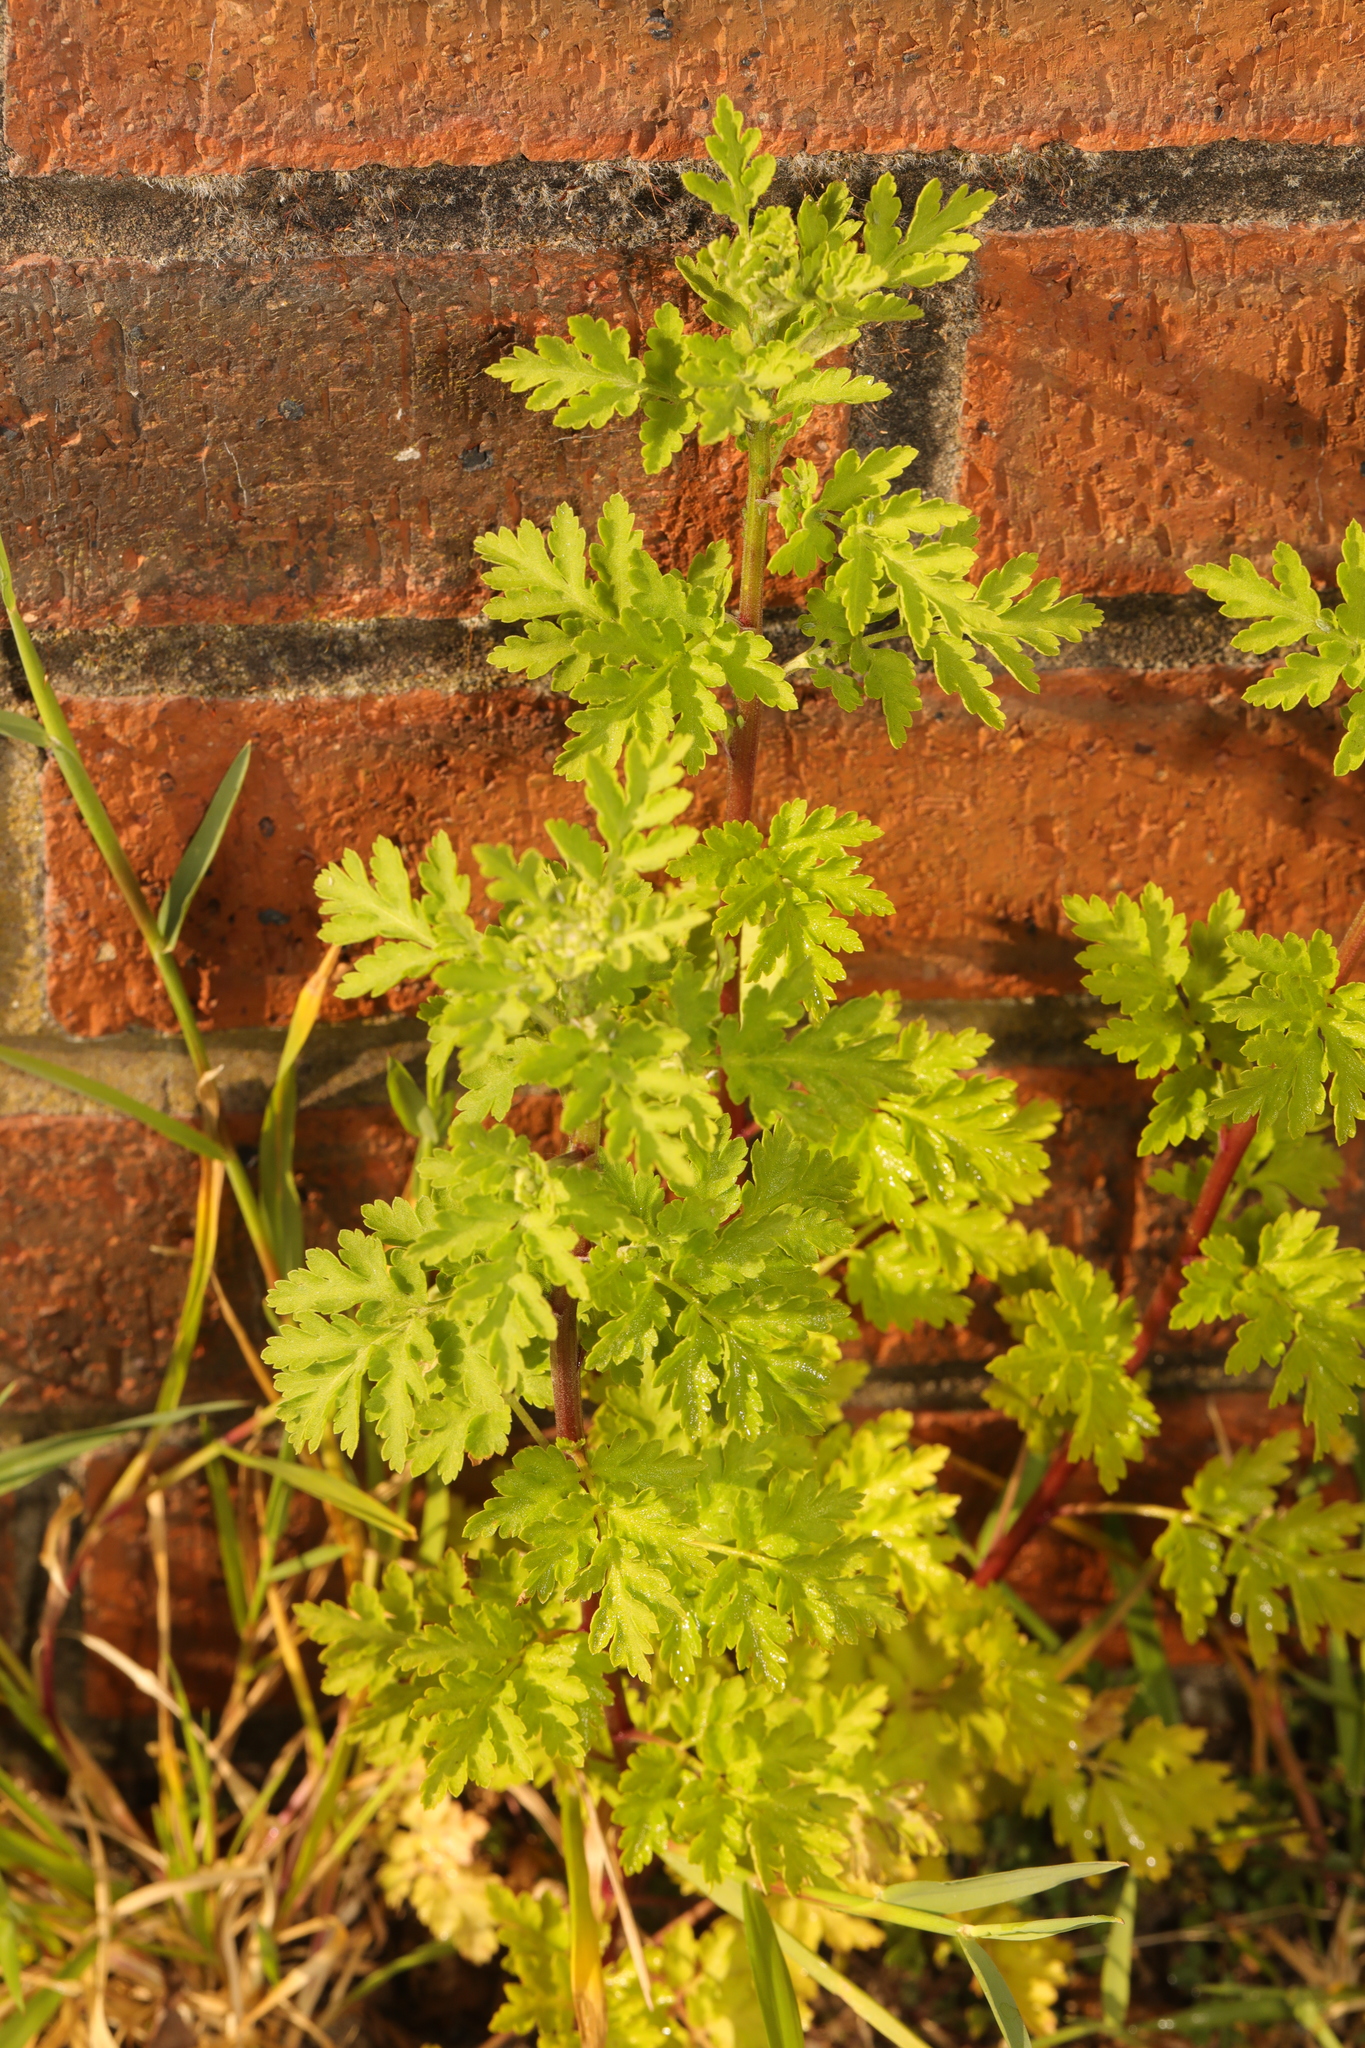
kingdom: Plantae
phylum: Tracheophyta
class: Magnoliopsida
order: Asterales
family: Asteraceae
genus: Tanacetum
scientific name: Tanacetum parthenium
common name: Feverfew
